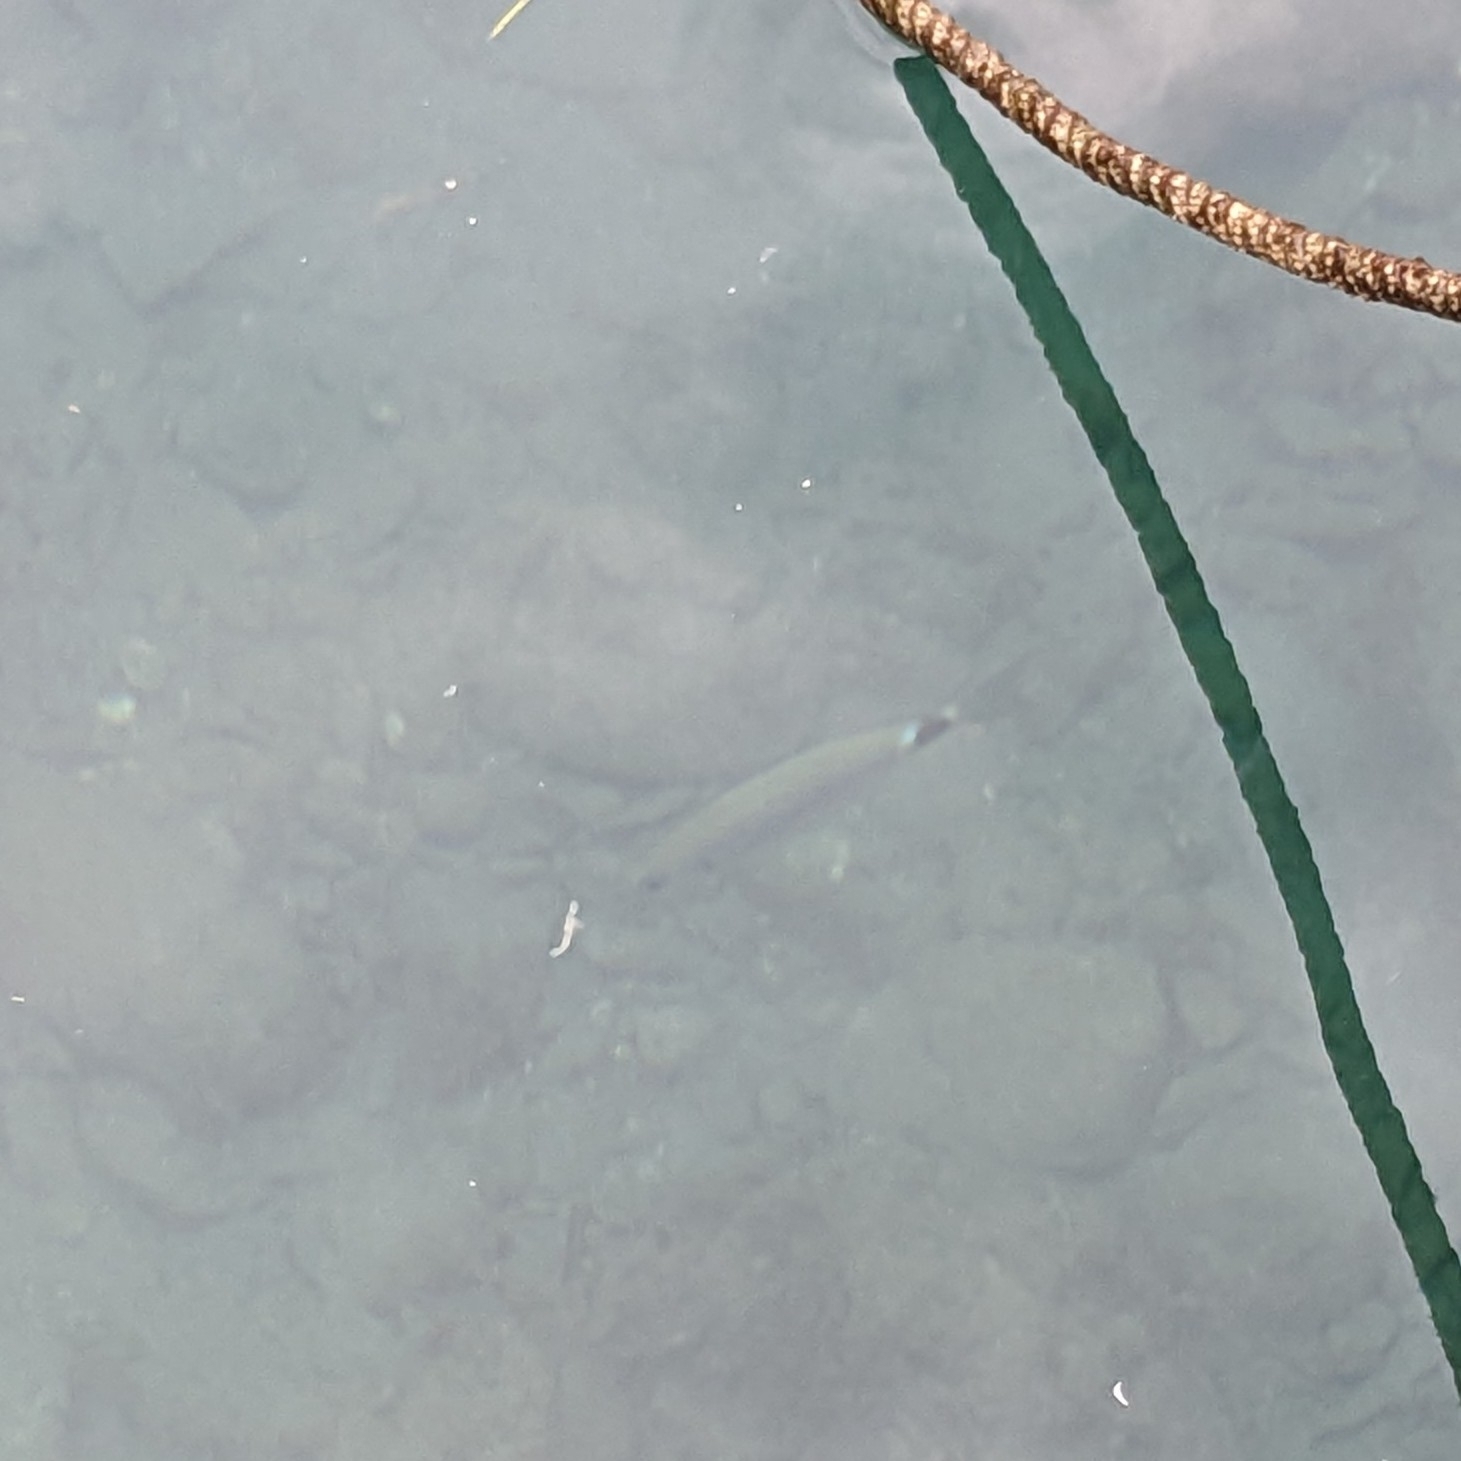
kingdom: Animalia
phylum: Chordata
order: Perciformes
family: Sparidae
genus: Oblada
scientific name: Oblada melanura
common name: Saddled seabream
